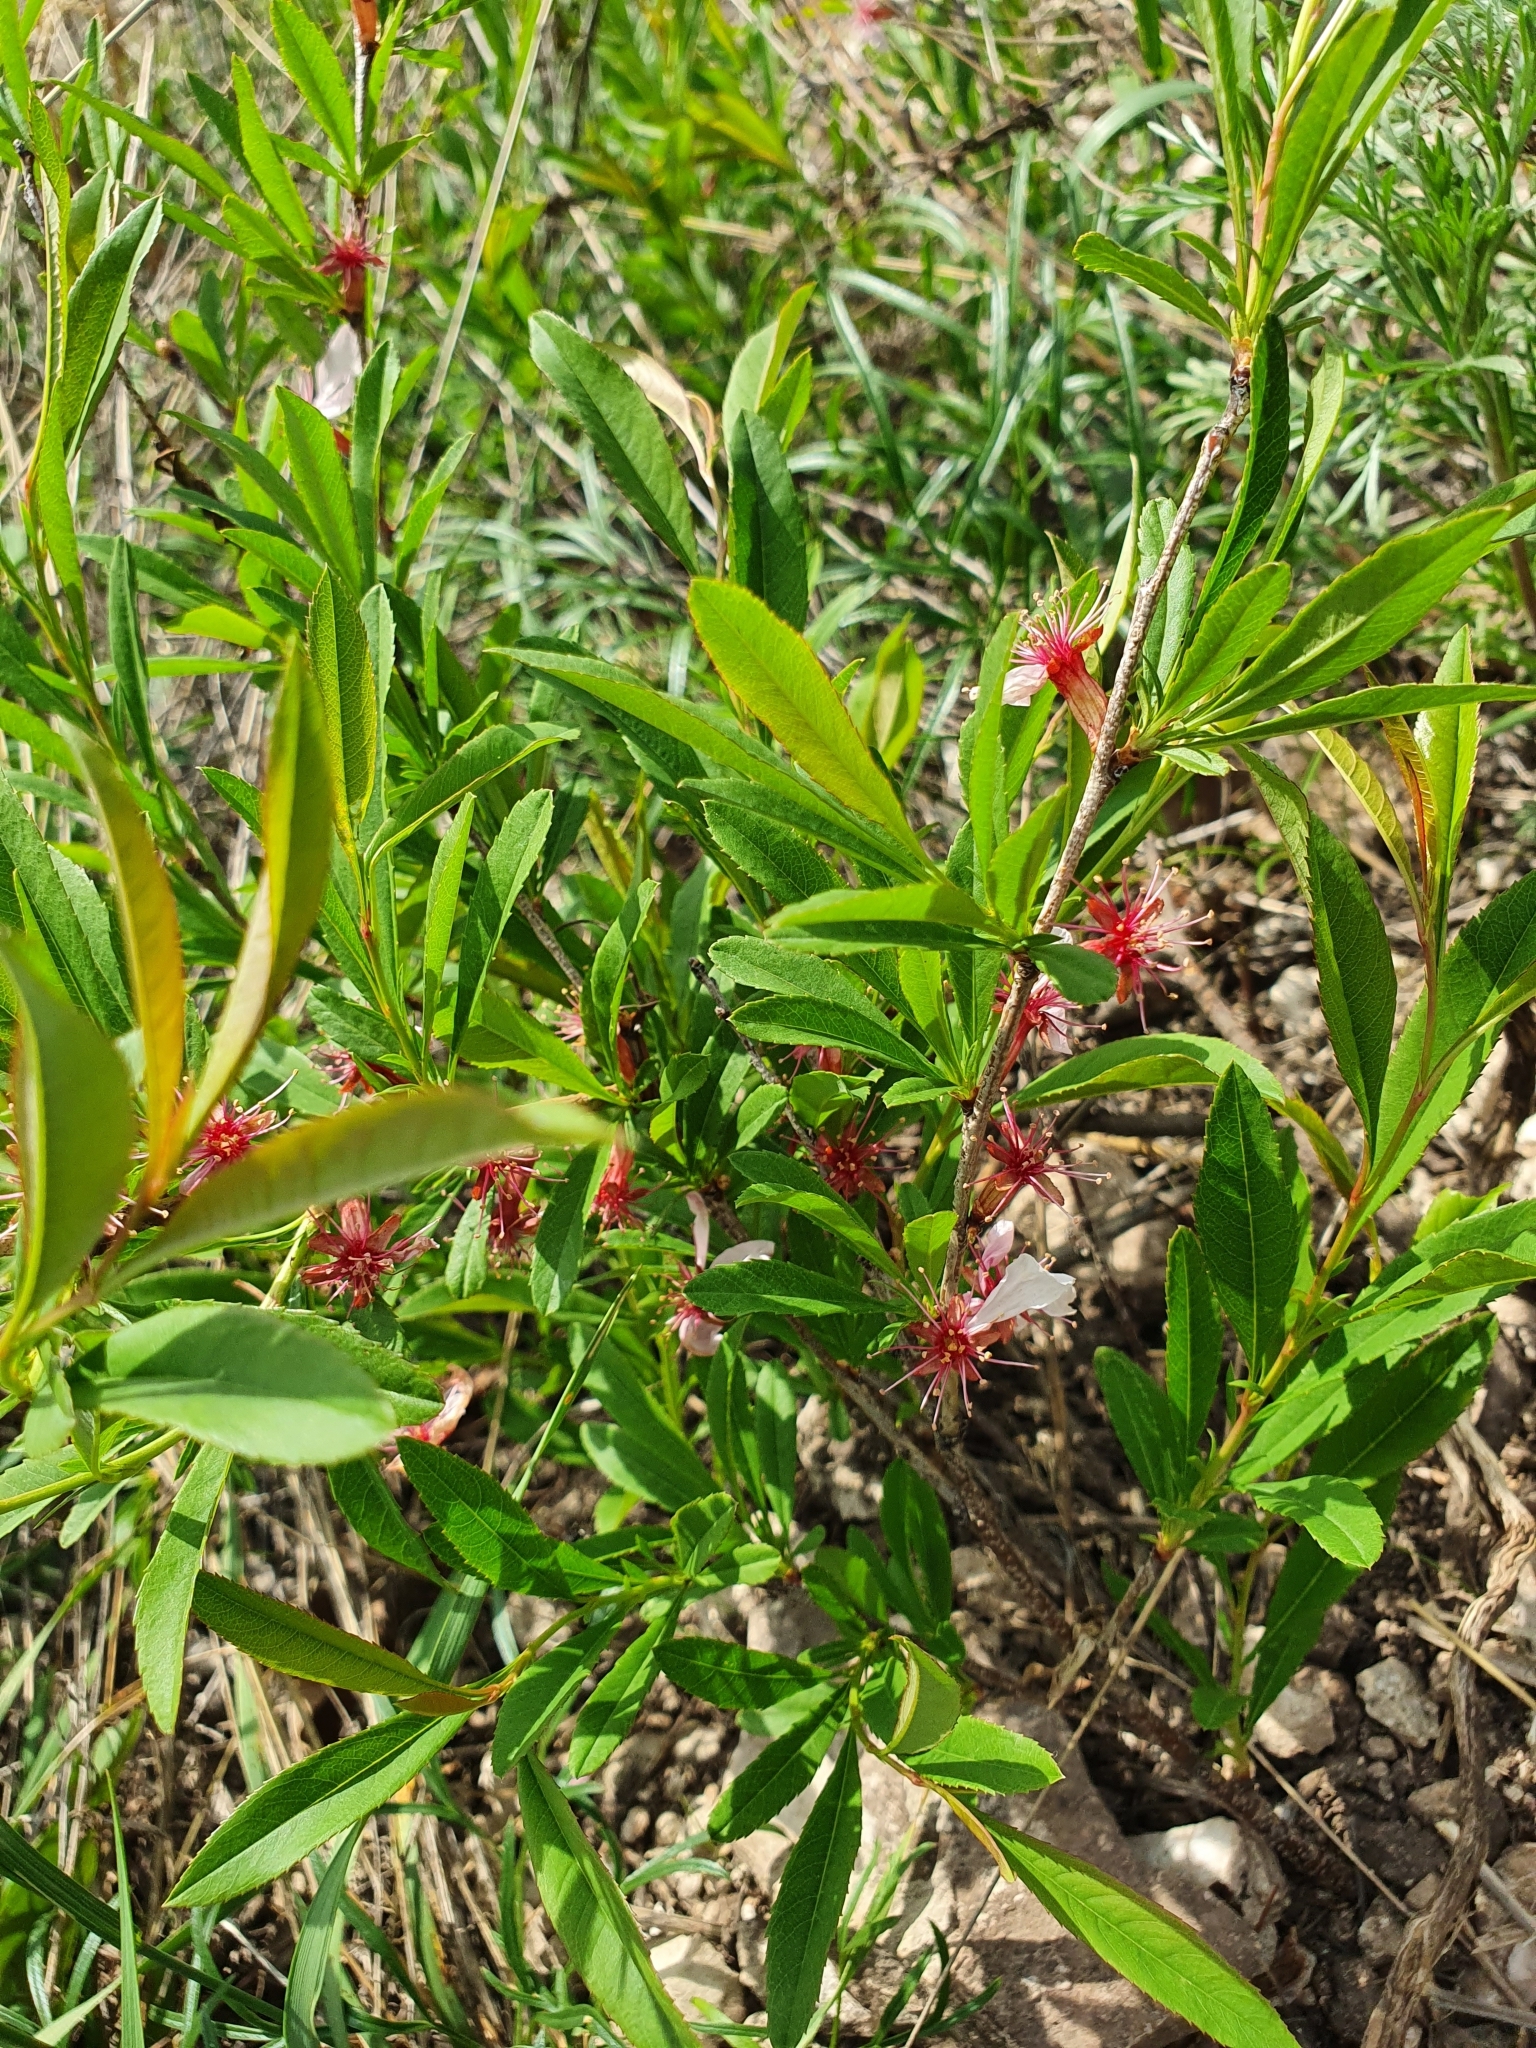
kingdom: Plantae
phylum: Tracheophyta
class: Magnoliopsida
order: Rosales
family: Rosaceae
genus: Prunus
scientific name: Prunus tenella
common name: Dwarf russian almond
